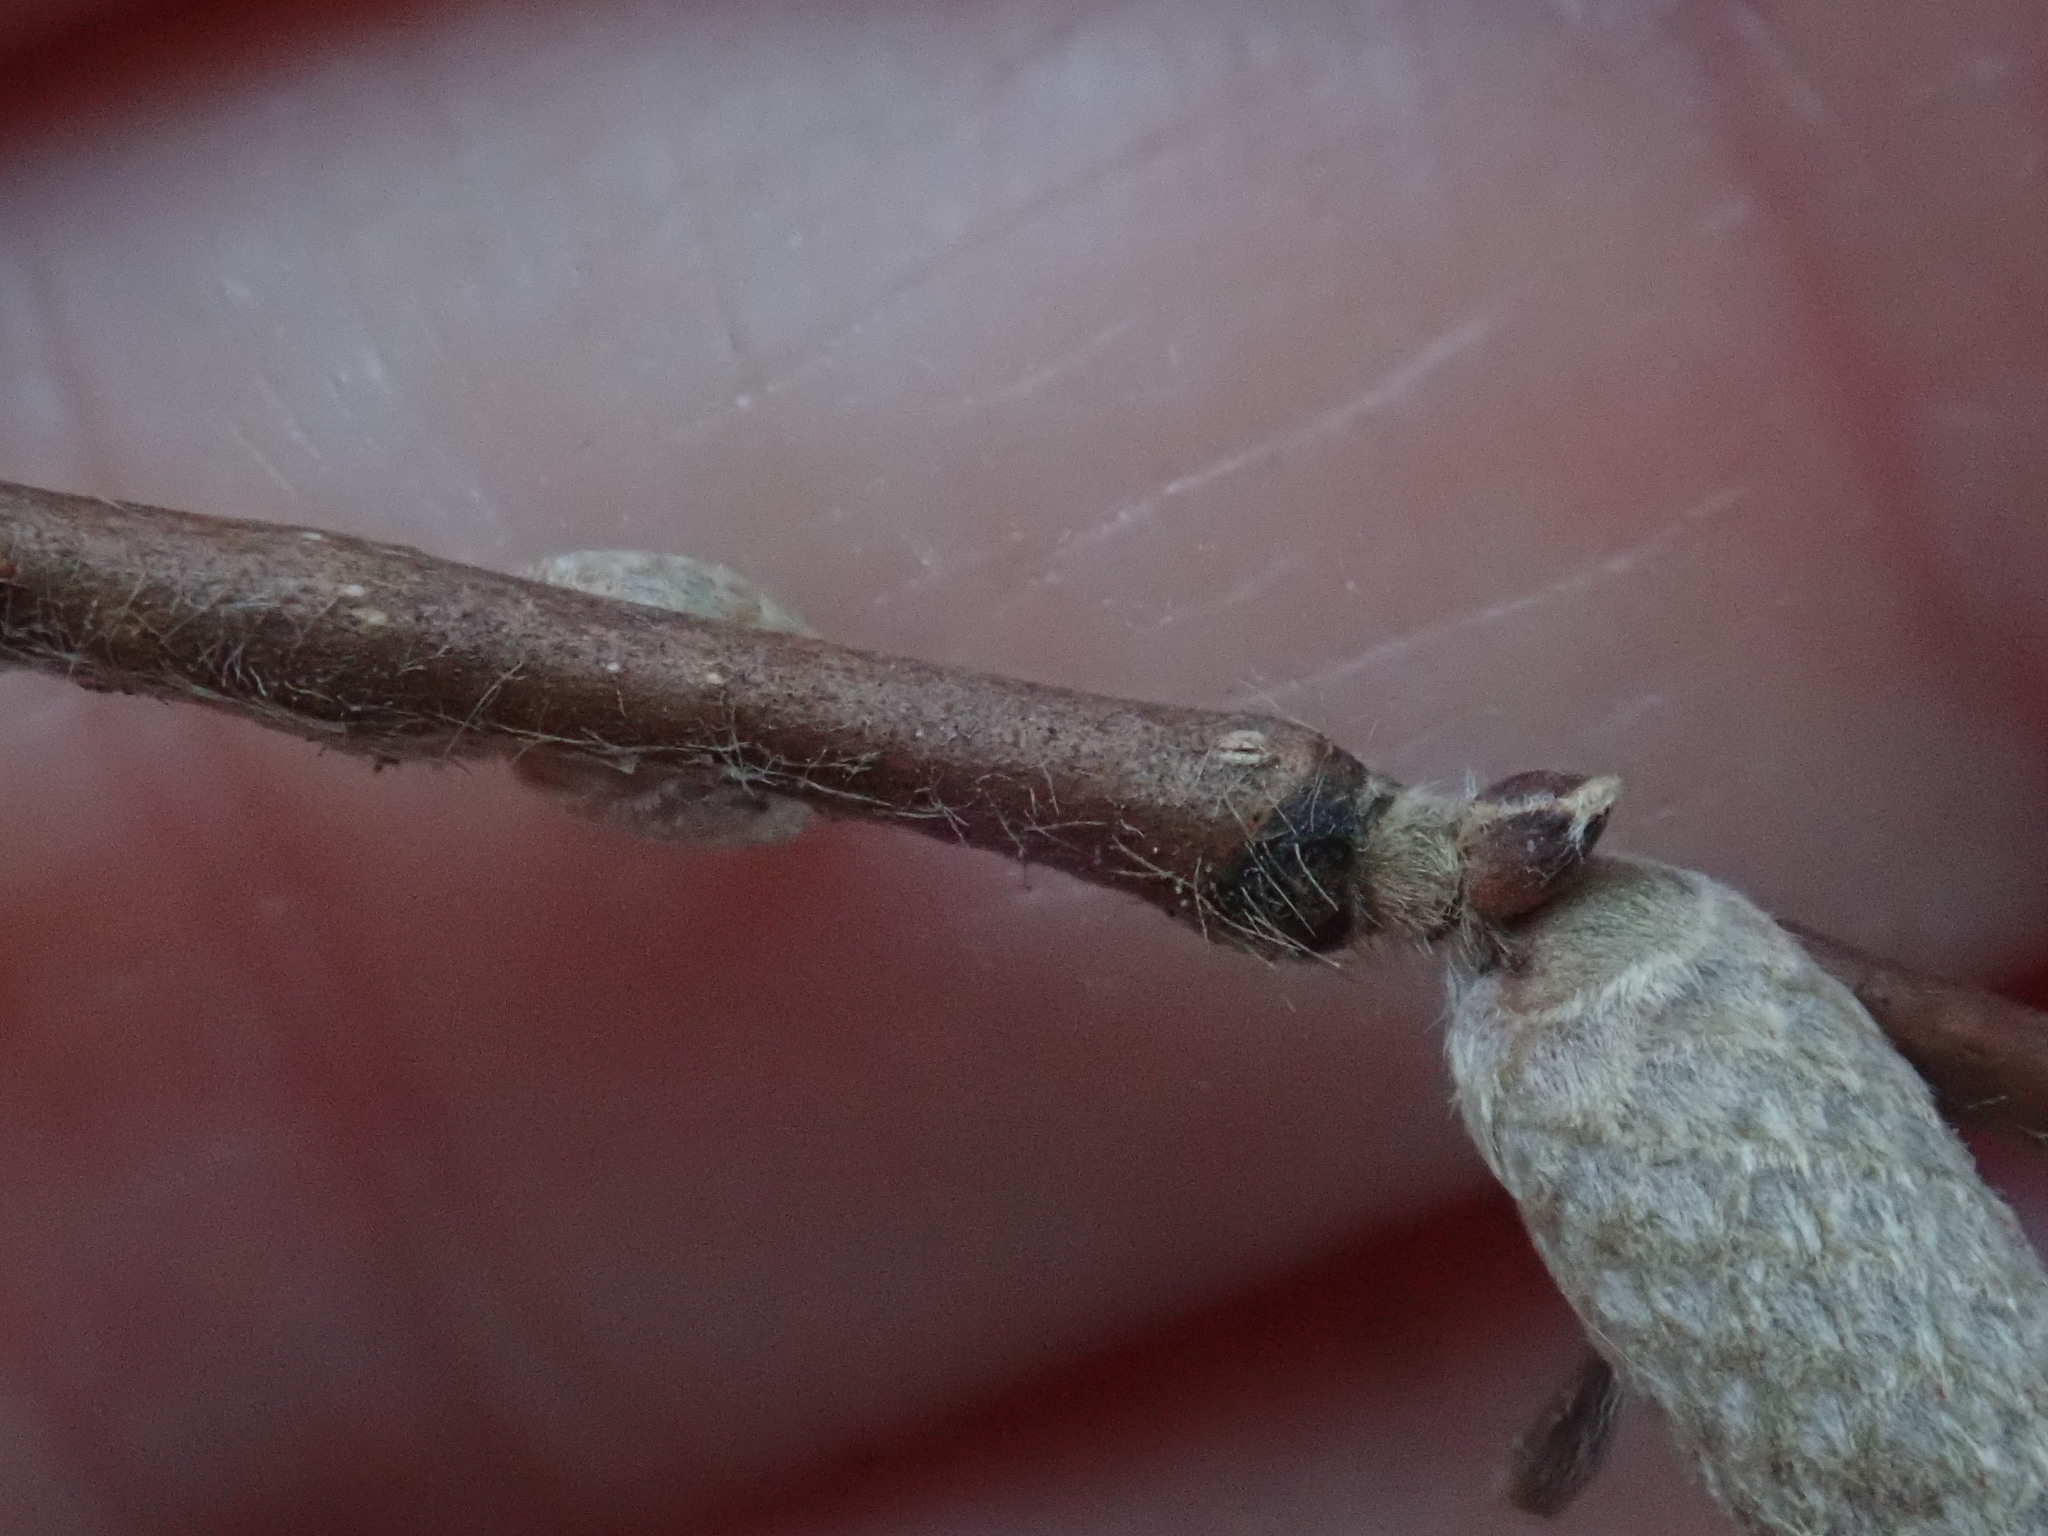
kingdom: Plantae
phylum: Tracheophyta
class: Magnoliopsida
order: Fagales
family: Betulaceae
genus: Corylus
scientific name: Corylus cornuta
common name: Beaked hazel
